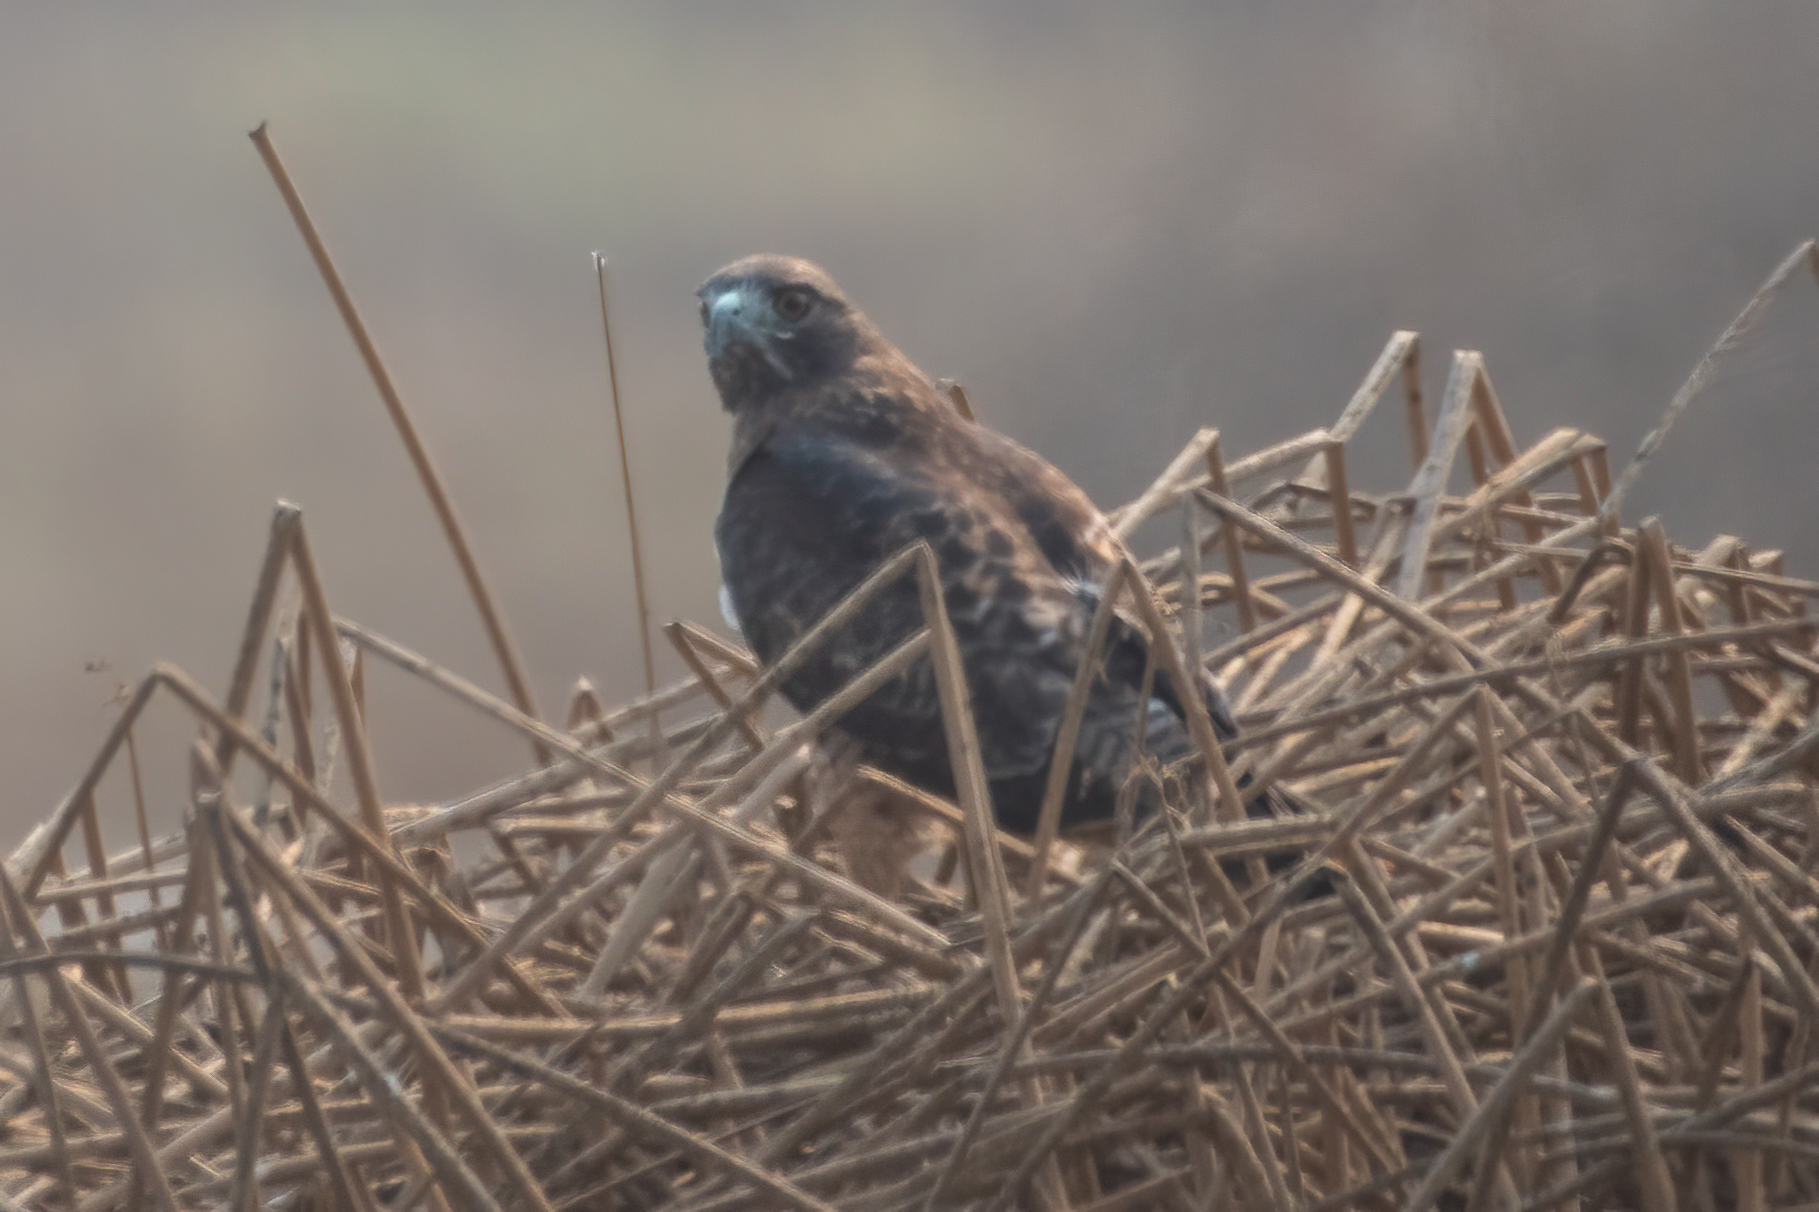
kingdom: Animalia
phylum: Chordata
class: Aves
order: Accipitriformes
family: Accipitridae
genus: Buteo
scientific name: Buteo jamaicensis
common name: Red-tailed hawk
